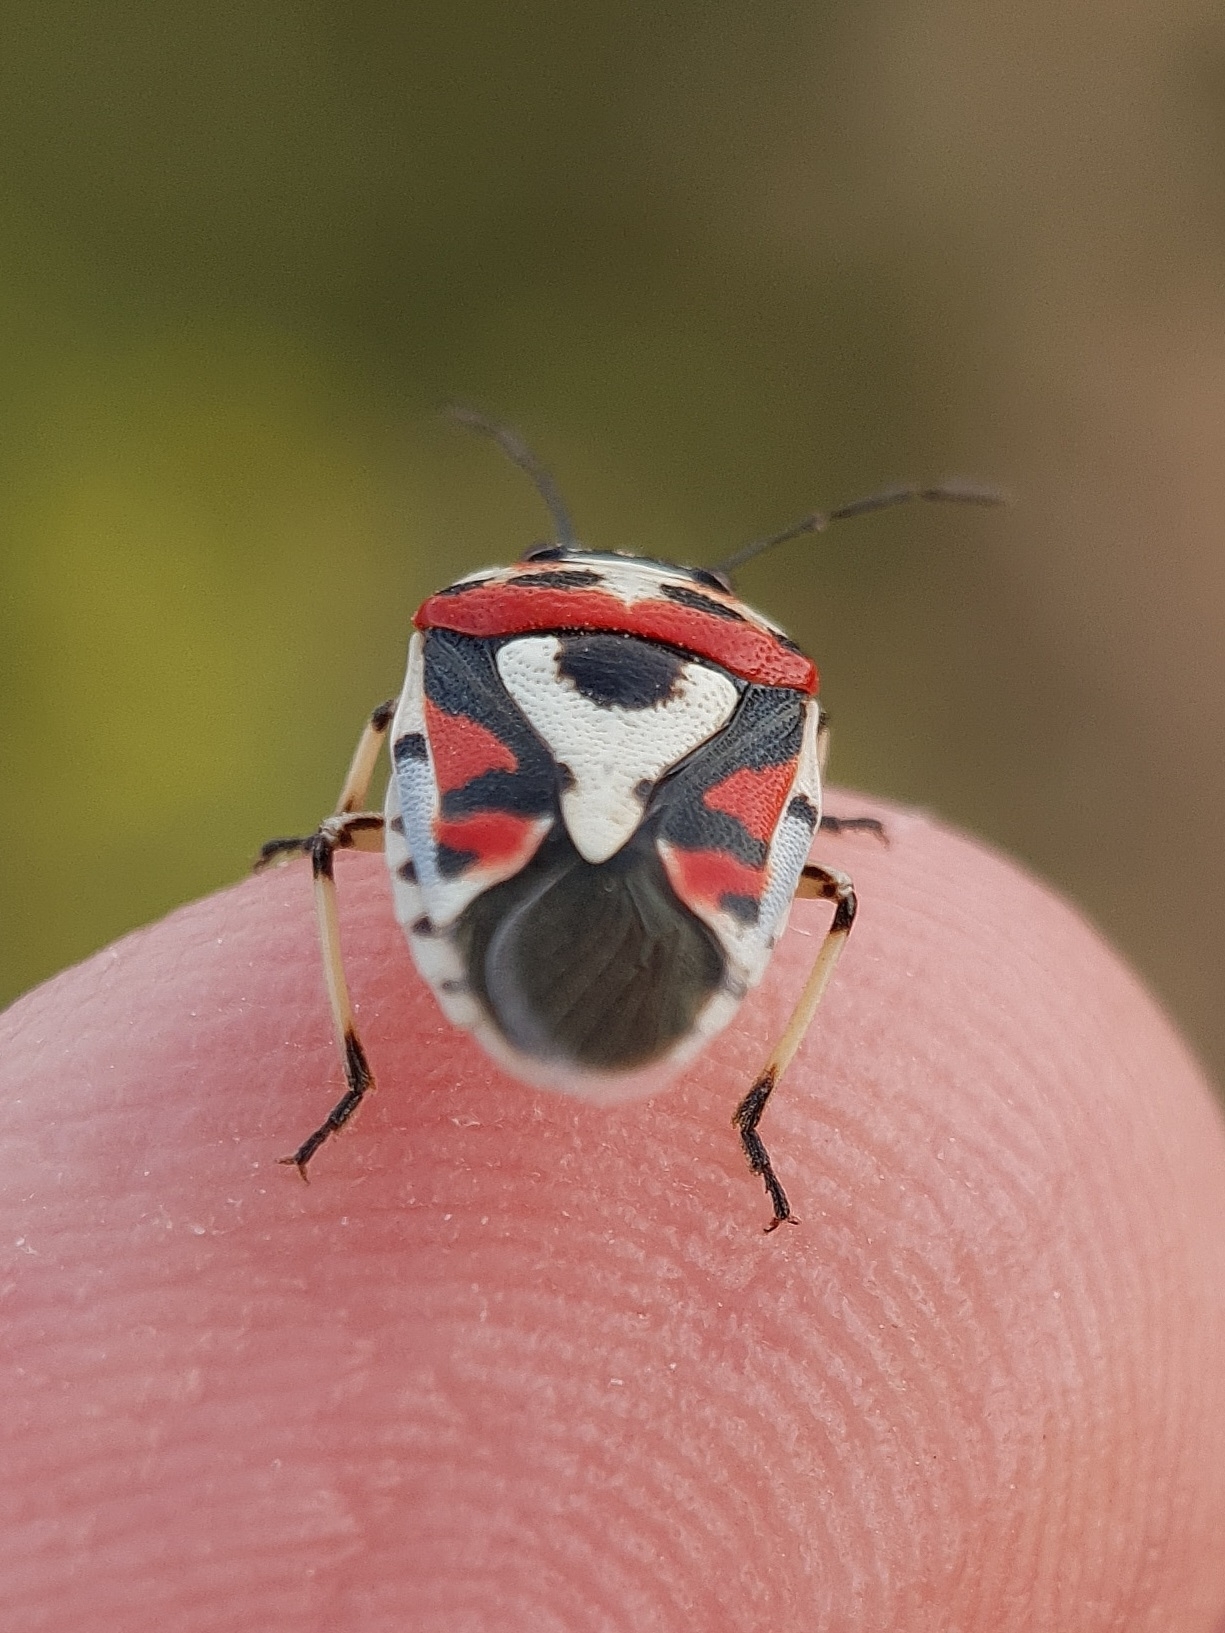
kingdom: Animalia
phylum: Arthropoda
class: Insecta
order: Hemiptera
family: Pentatomidae
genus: Eurydema
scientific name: Eurydema ornata
